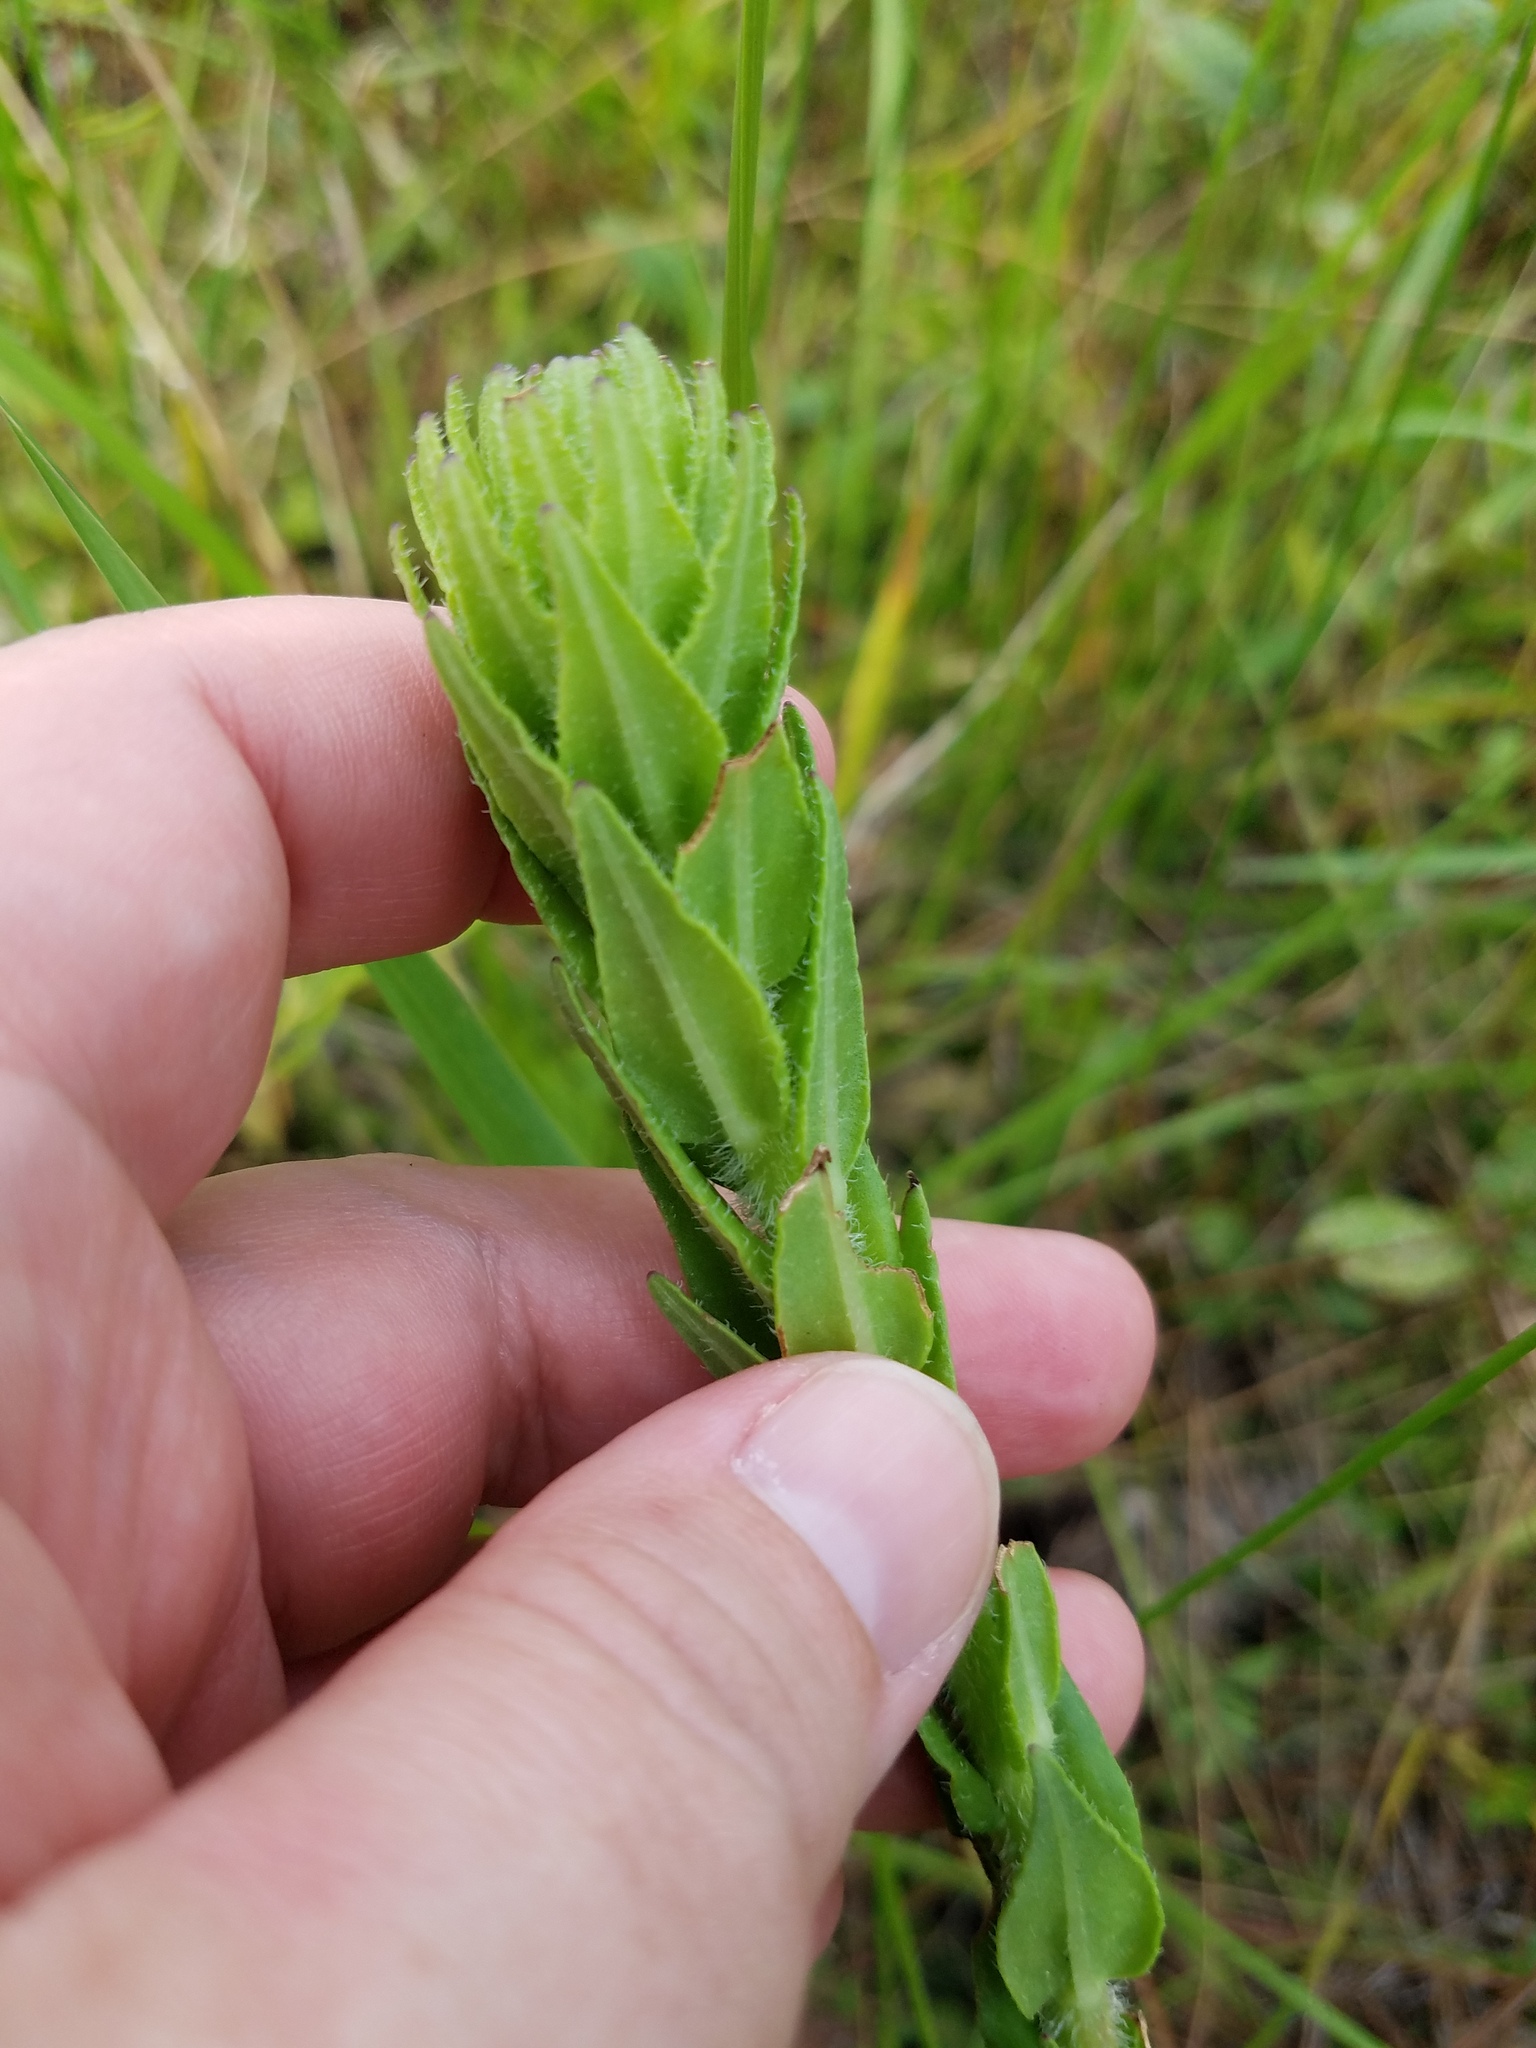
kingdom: Plantae
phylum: Tracheophyta
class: Magnoliopsida
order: Asterales
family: Asteraceae
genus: Carphephorus
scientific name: Carphephorus paniculatus
